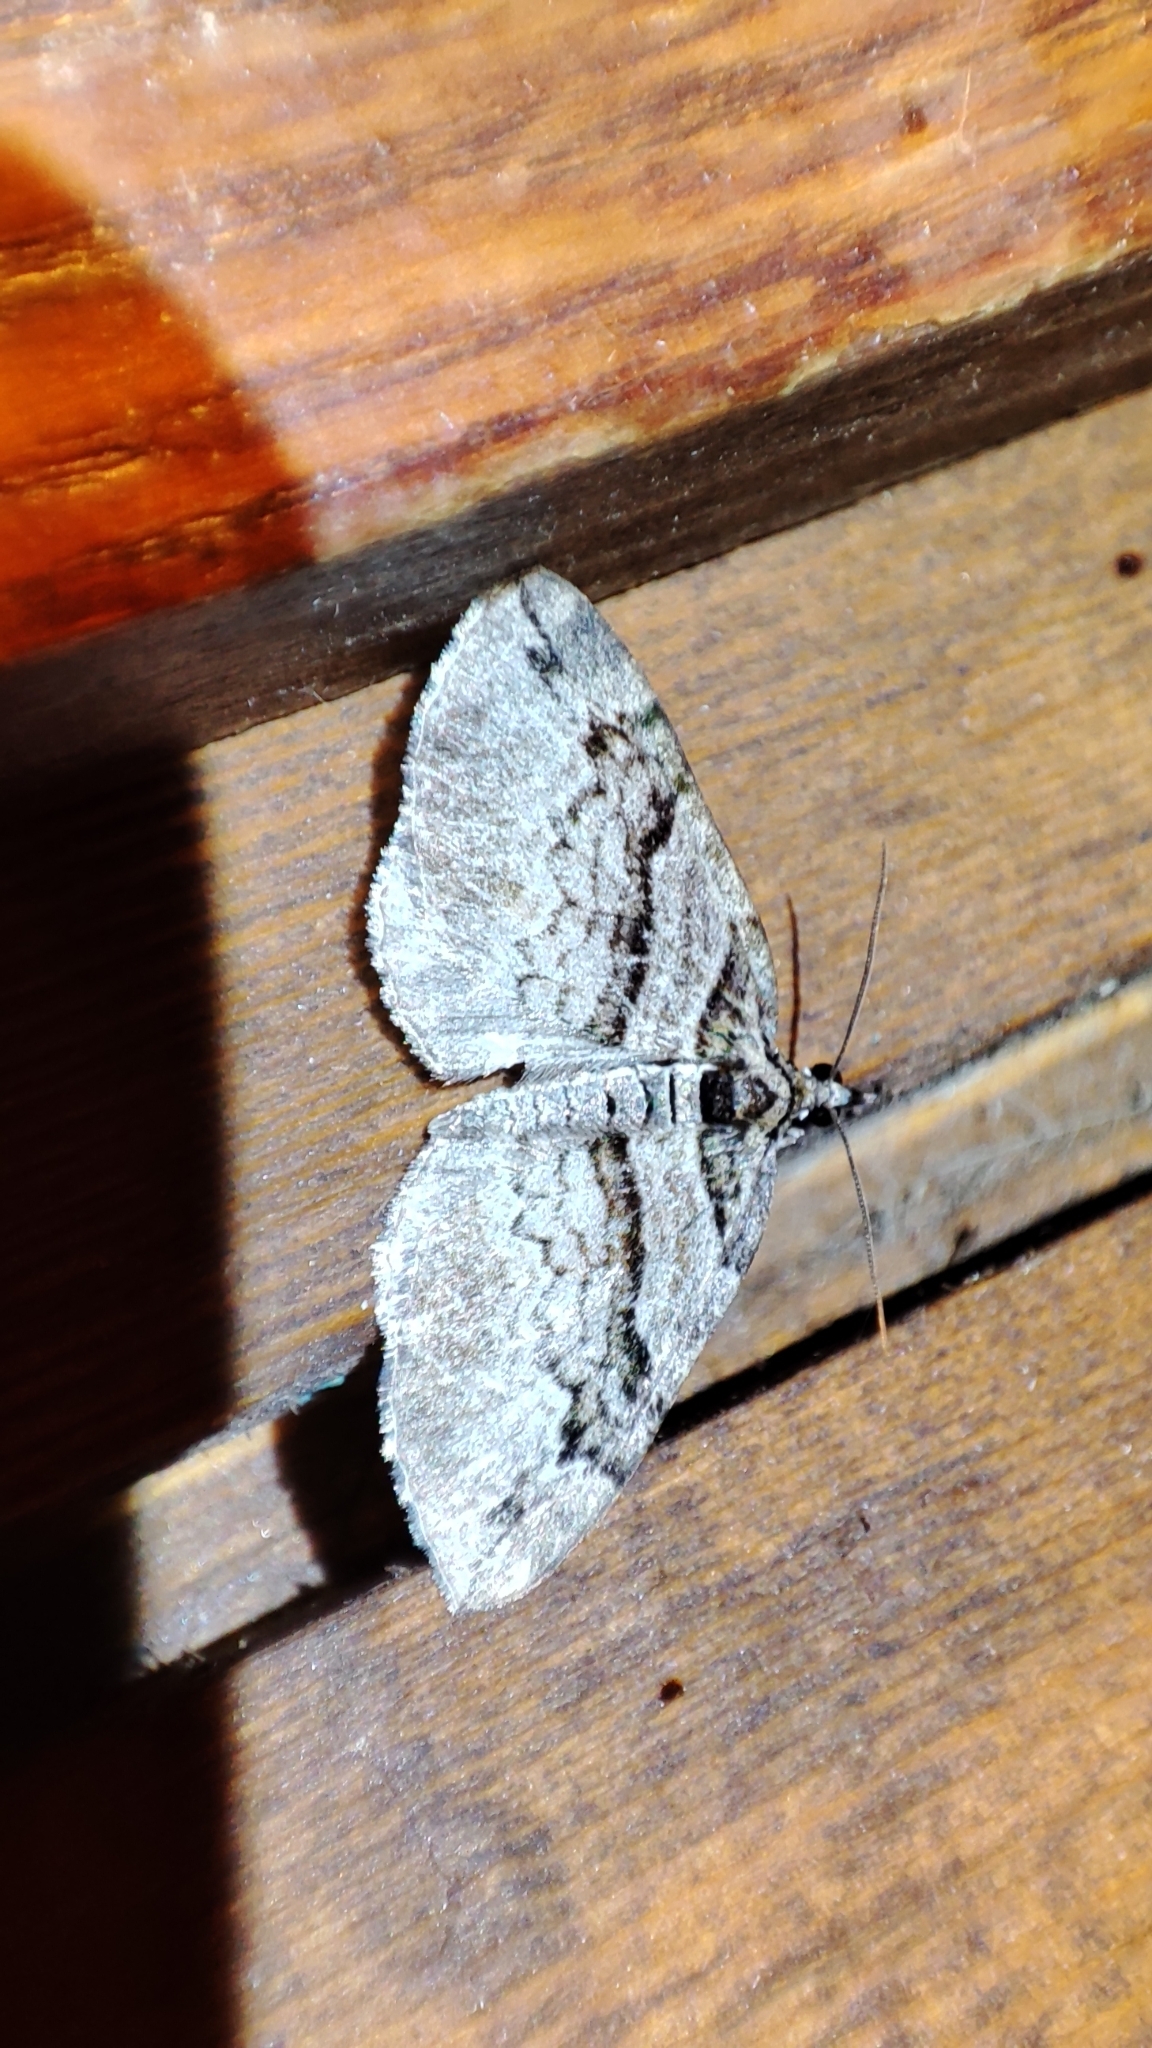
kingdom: Animalia
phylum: Arthropoda
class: Insecta
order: Lepidoptera
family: Geometridae
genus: Pareulype
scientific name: Pareulype consanguinea
